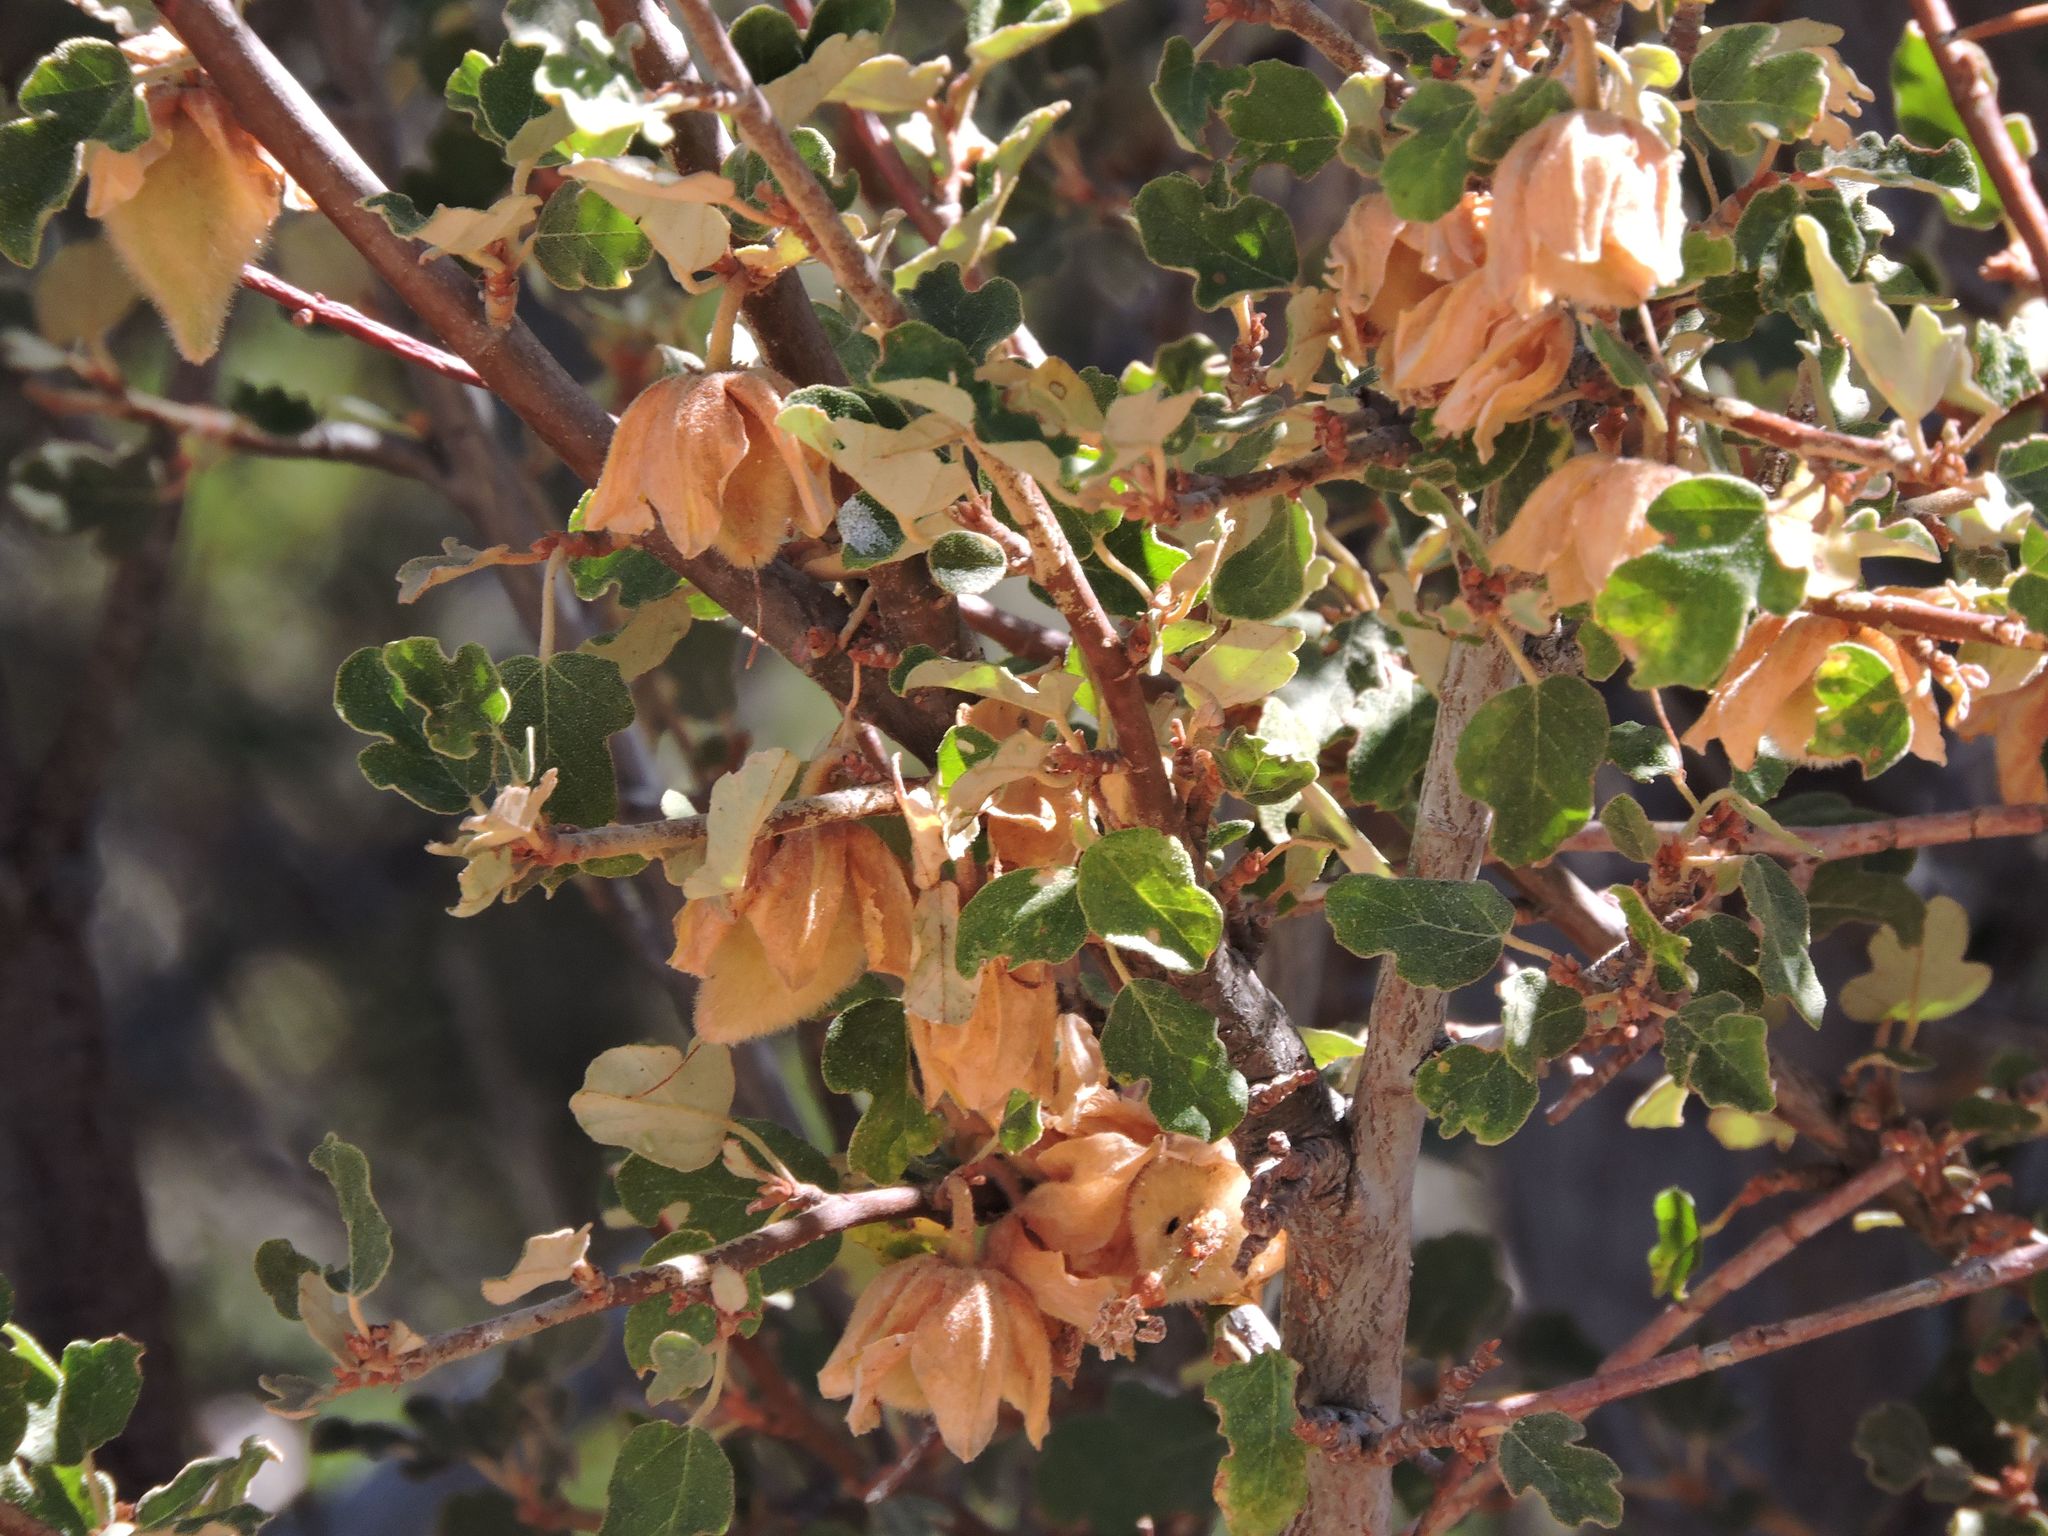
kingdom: Plantae
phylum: Tracheophyta
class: Magnoliopsida
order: Malvales
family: Malvaceae
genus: Fremontodendron
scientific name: Fremontodendron californicum
